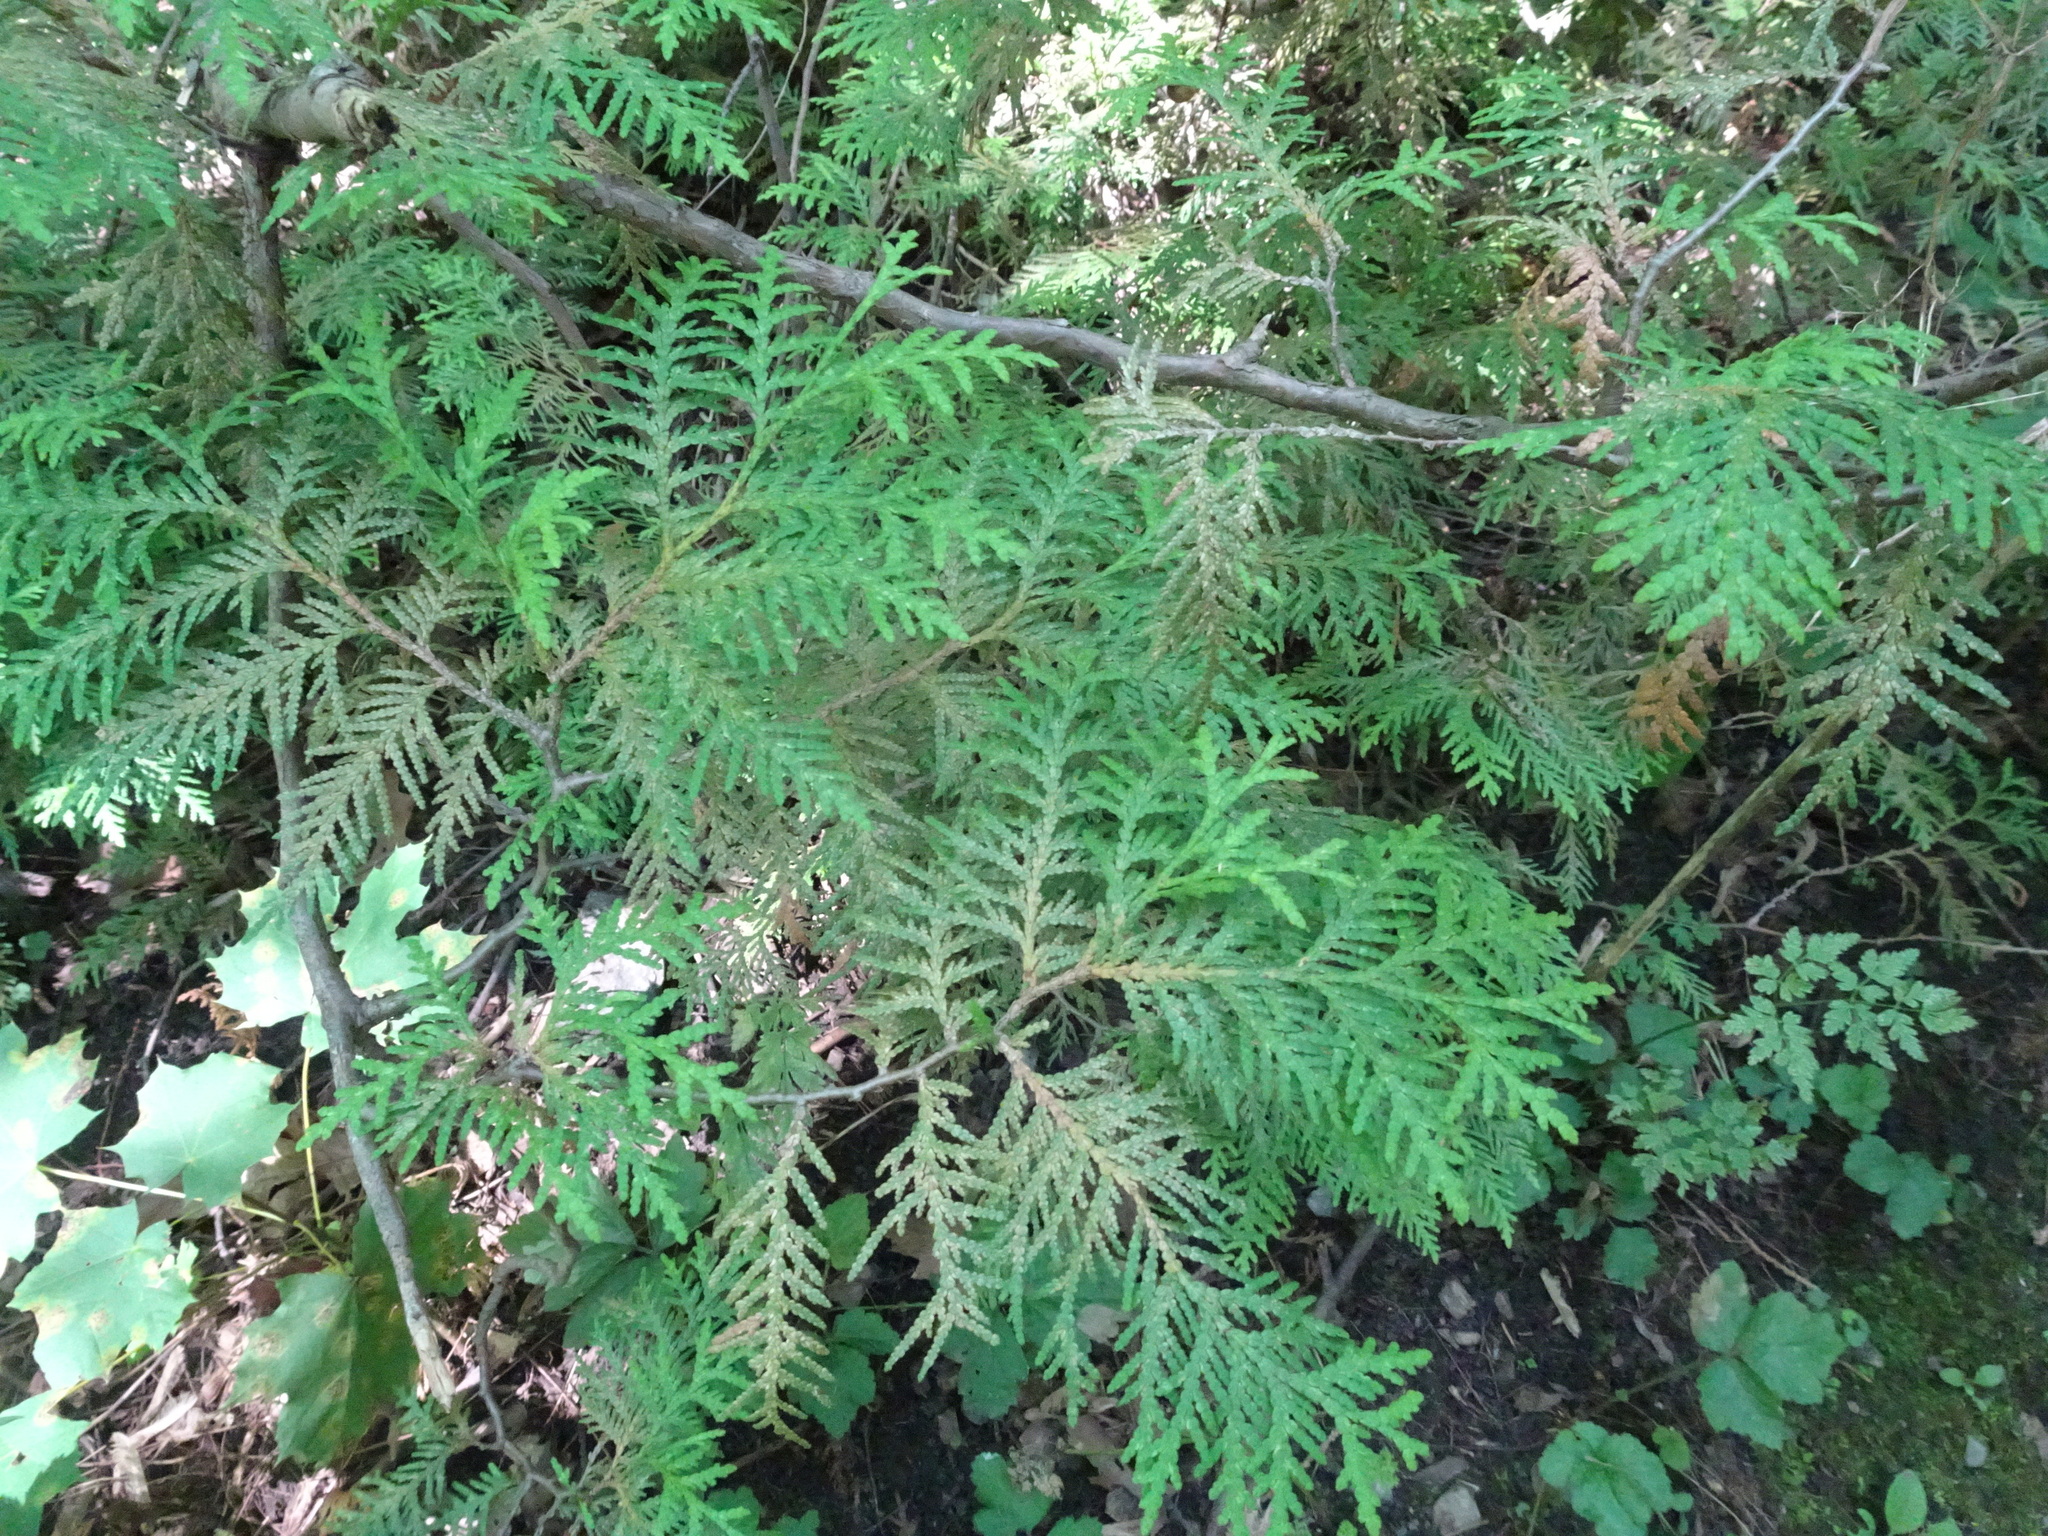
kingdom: Plantae
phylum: Tracheophyta
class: Pinopsida
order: Pinales
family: Cupressaceae
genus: Thuja
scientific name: Thuja occidentalis
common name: Northern white-cedar
